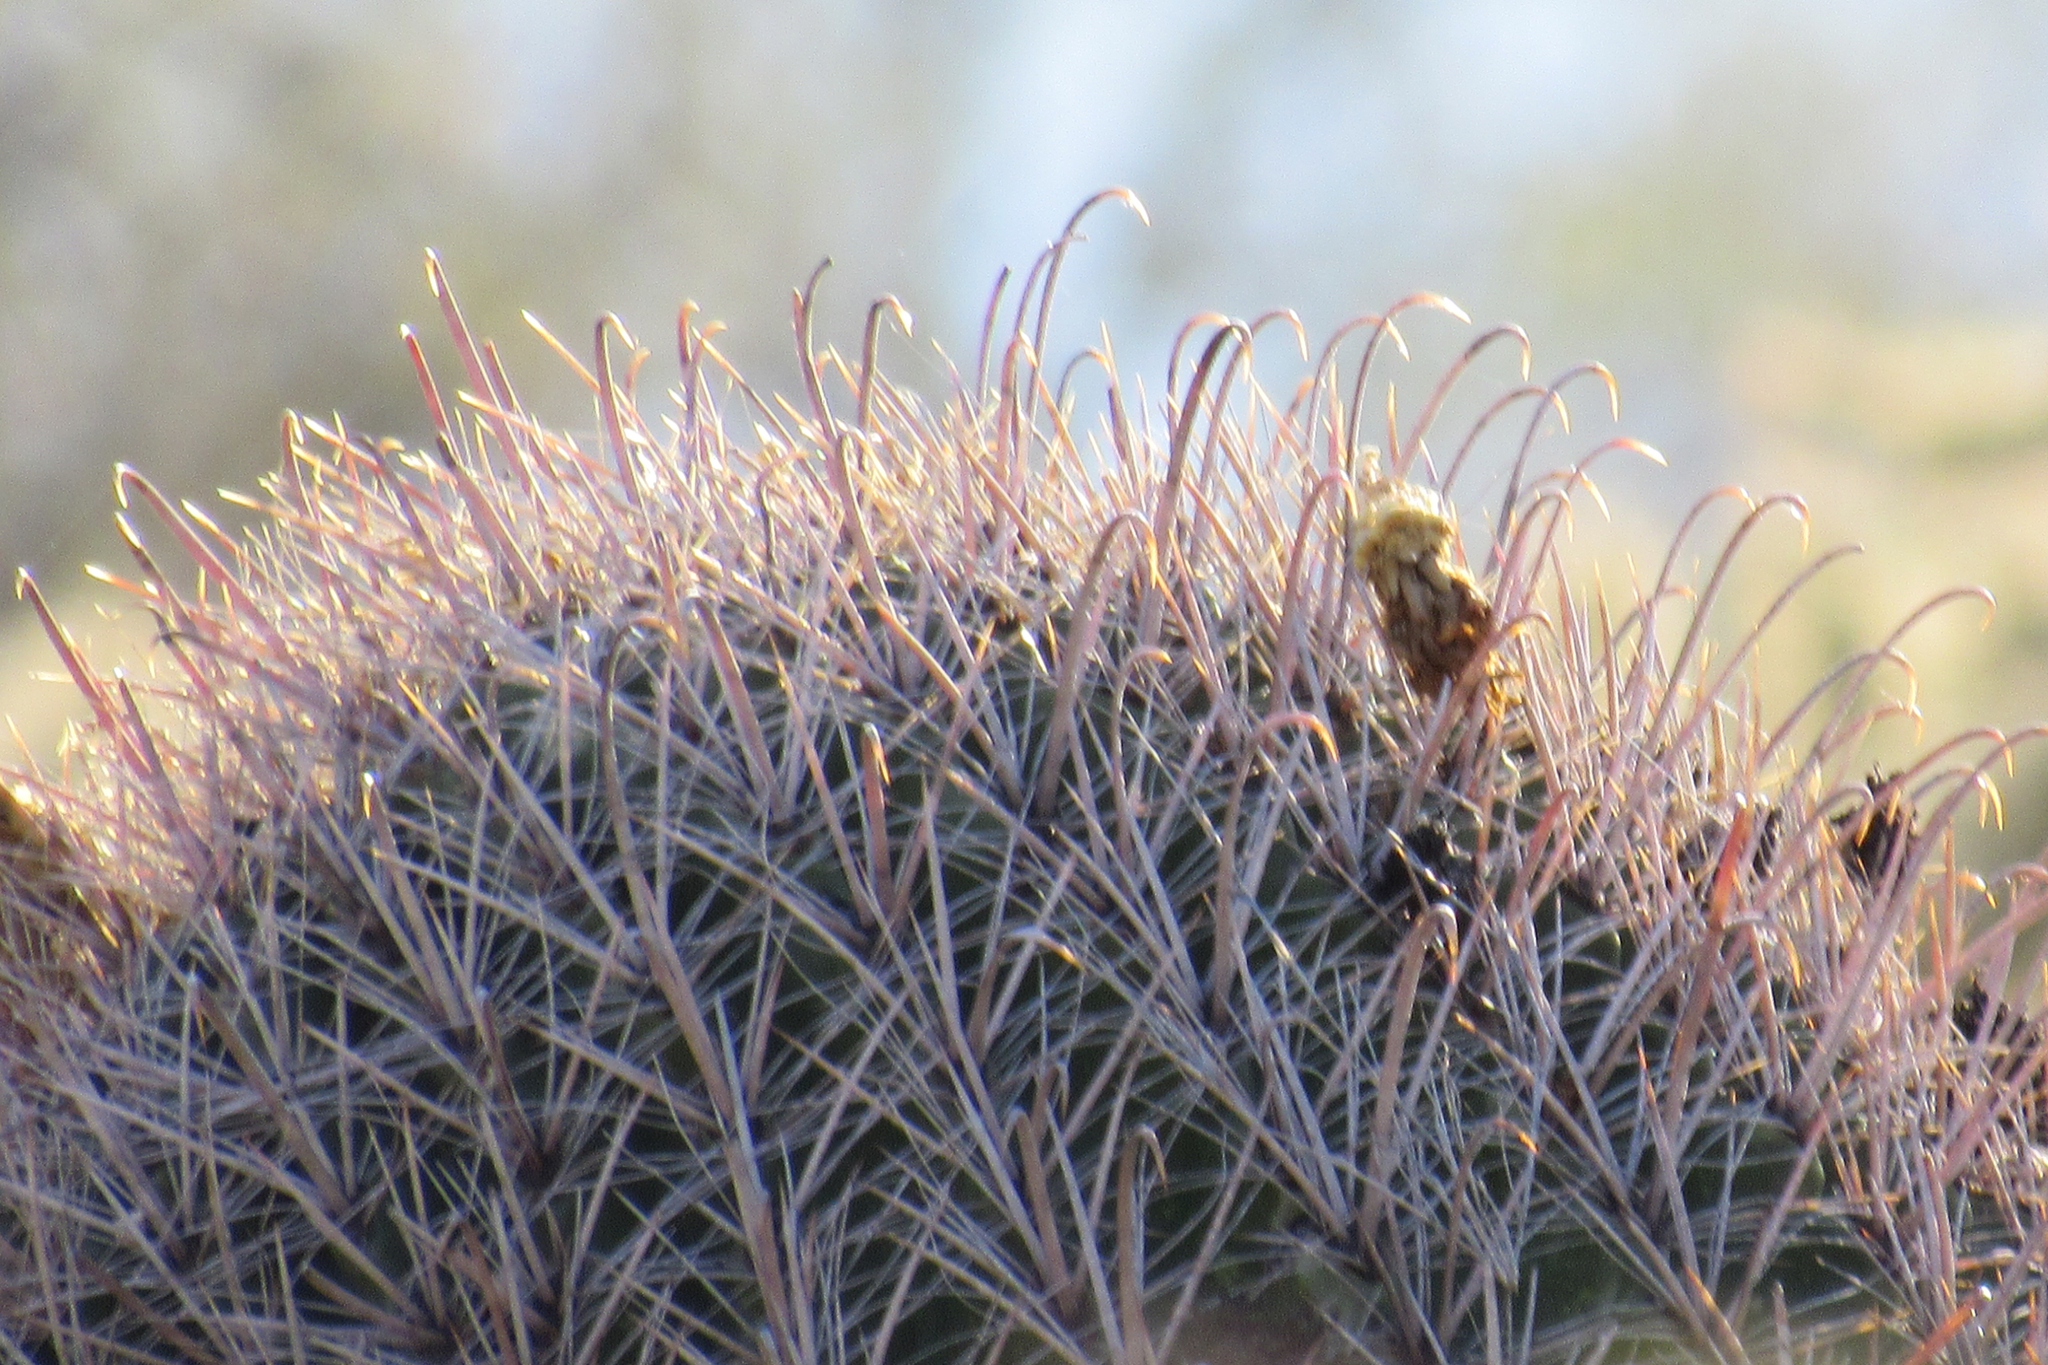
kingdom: Plantae
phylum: Tracheophyta
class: Magnoliopsida
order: Caryophyllales
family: Cactaceae
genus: Ferocactus
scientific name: Ferocactus wislizeni
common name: Candy barrel cactus
